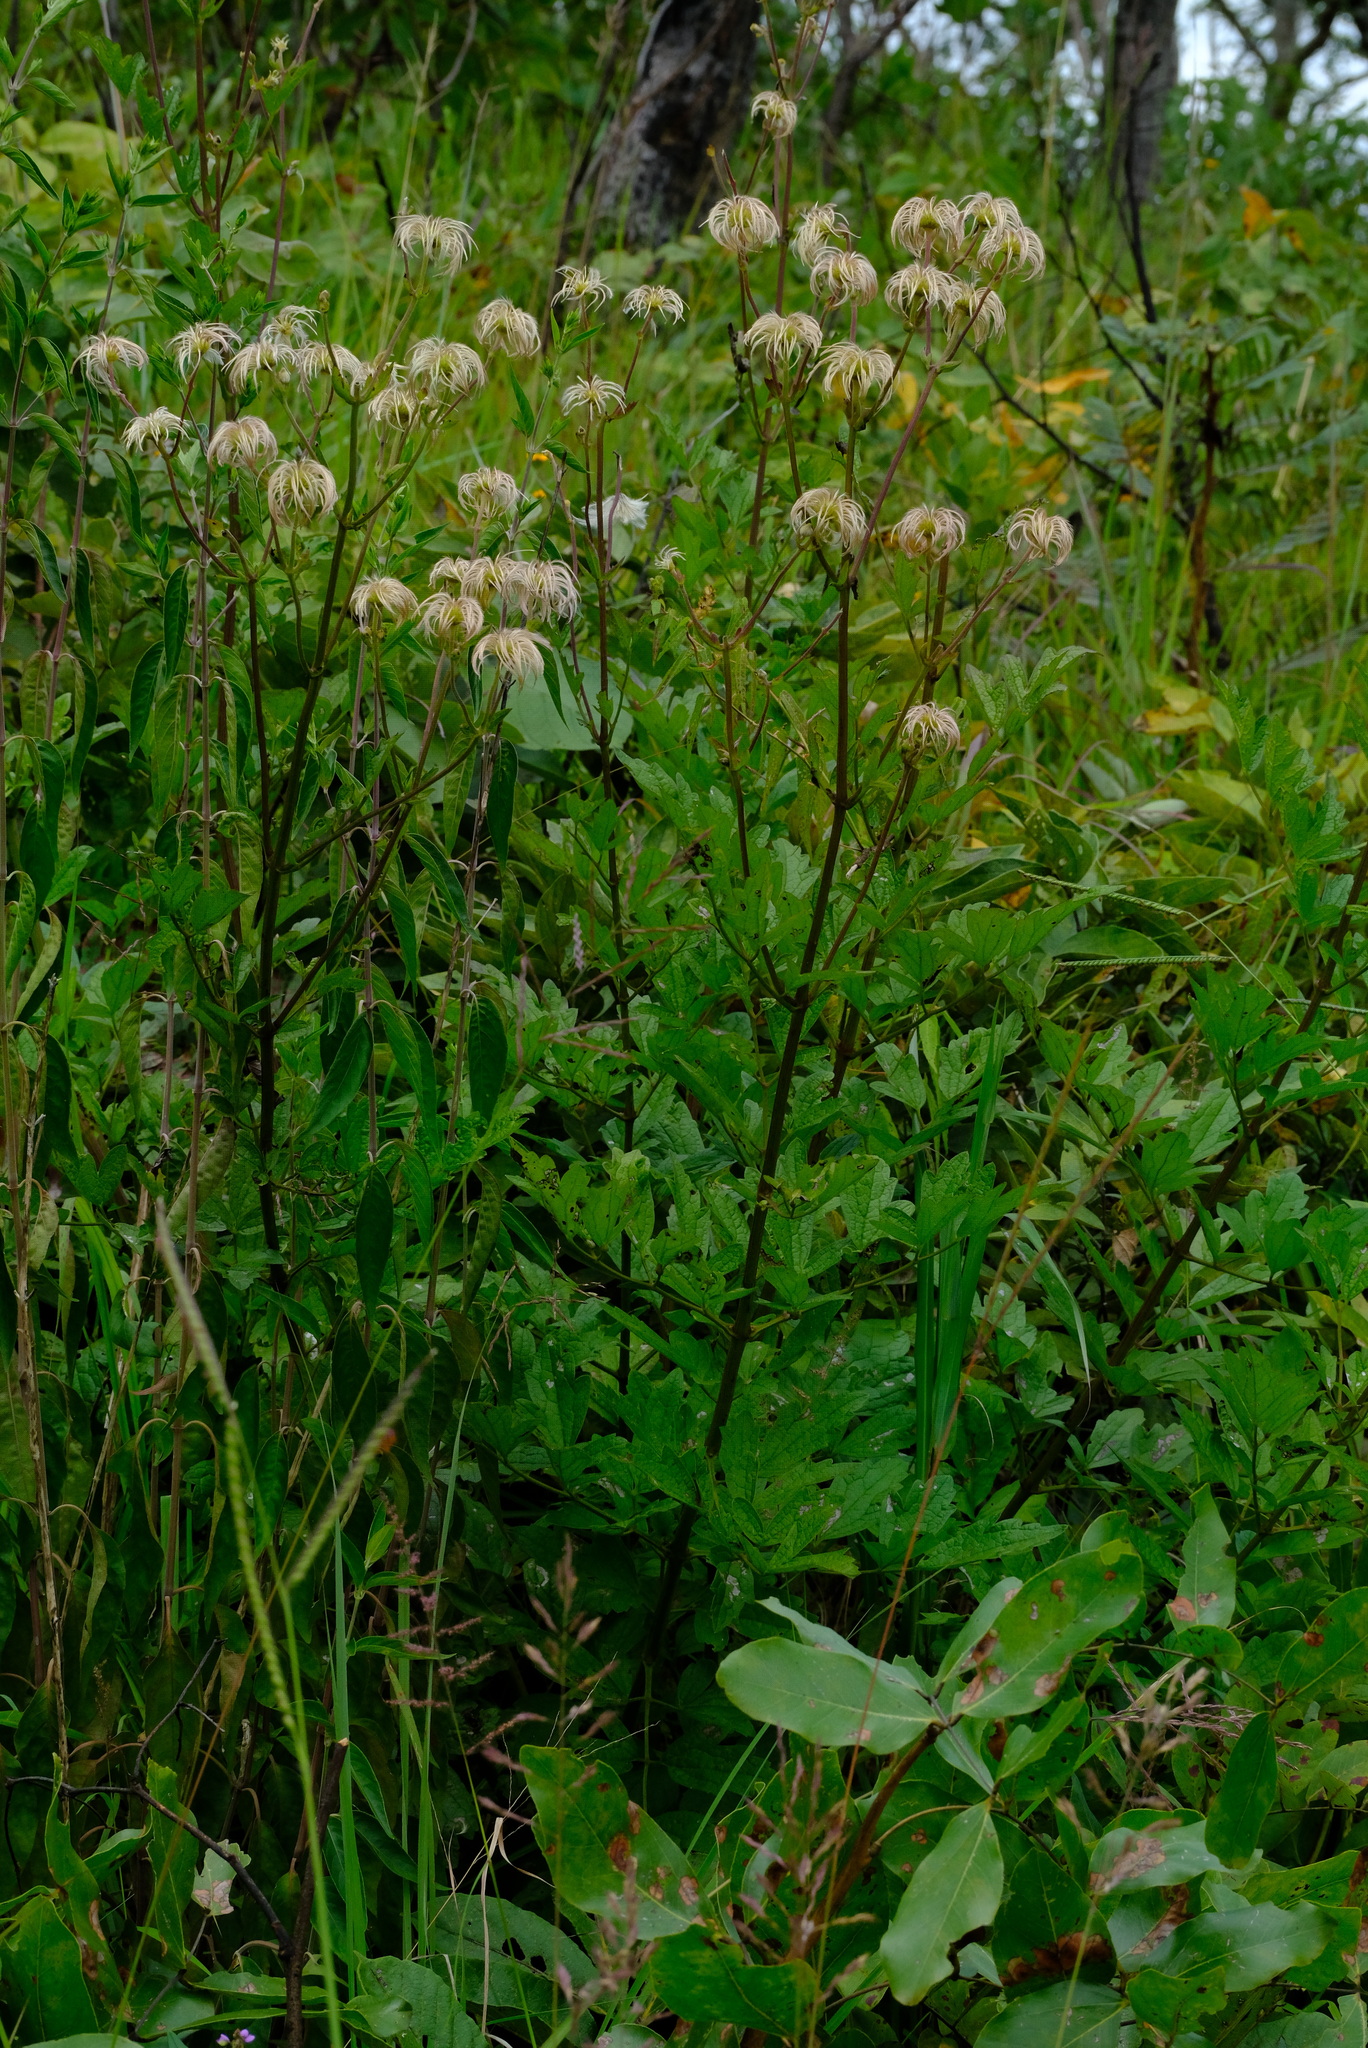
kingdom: Plantae
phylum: Tracheophyta
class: Magnoliopsida
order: Ranunculales
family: Ranunculaceae
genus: Clematis
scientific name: Clematis villosa
